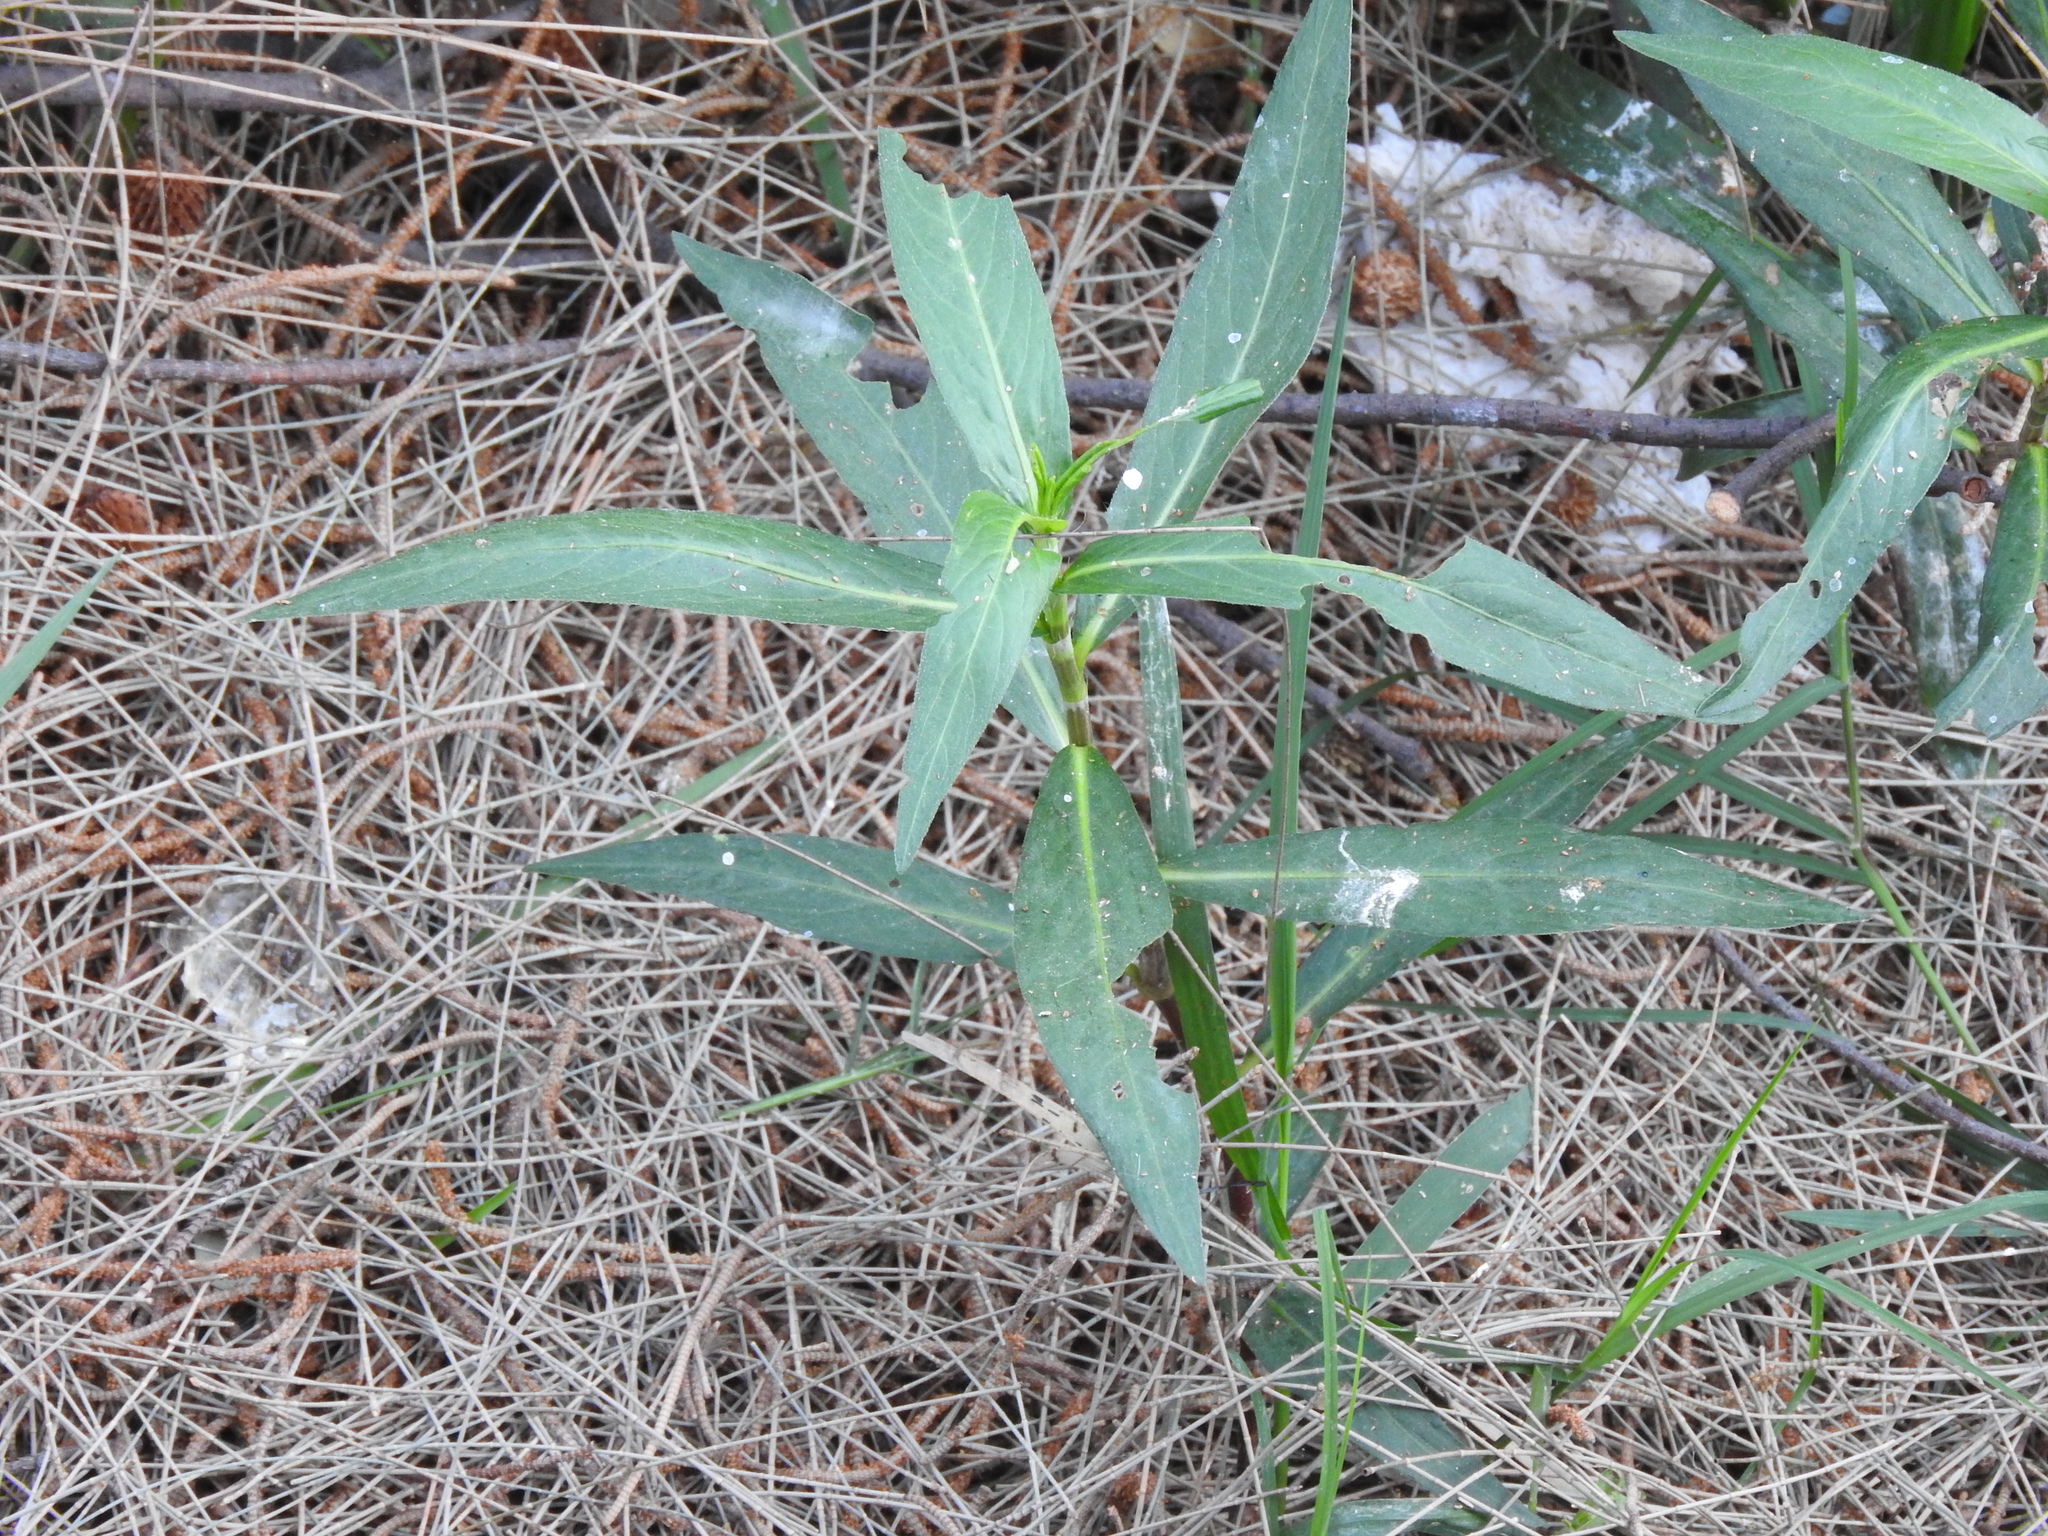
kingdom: Plantae
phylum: Tracheophyta
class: Magnoliopsida
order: Gentianales
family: Apocynaceae
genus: Asclepias
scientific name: Asclepias curassavica
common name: Bloodflower
